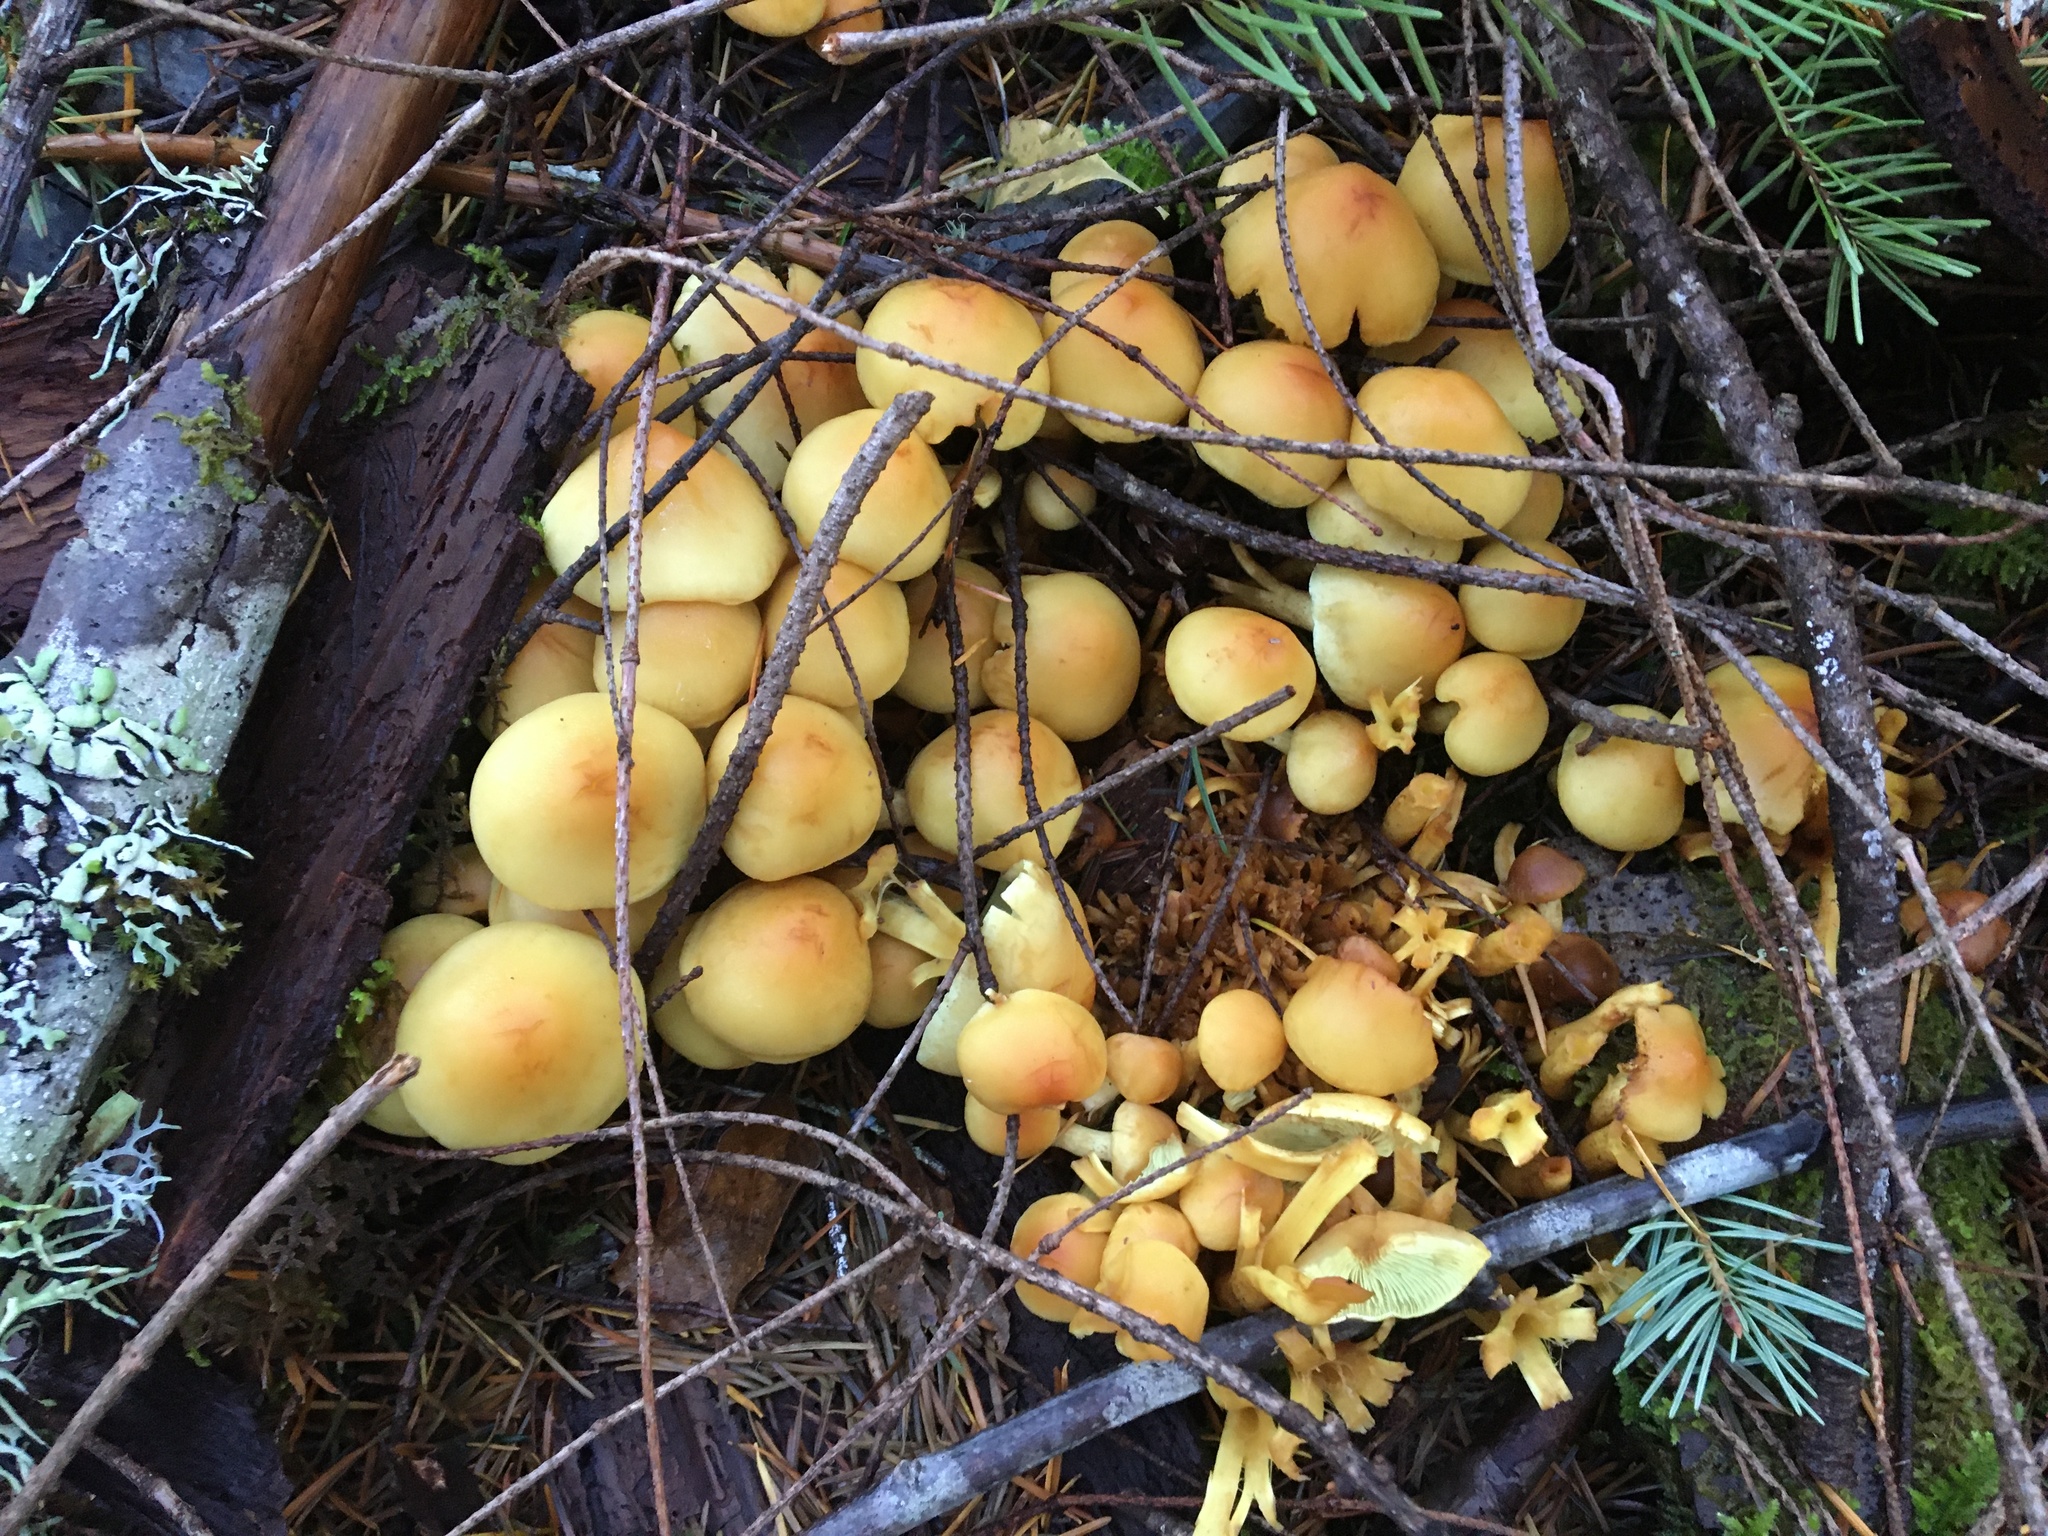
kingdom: Fungi
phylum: Basidiomycota
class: Agaricomycetes
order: Agaricales
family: Strophariaceae
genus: Hypholoma
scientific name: Hypholoma fasciculare
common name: Sulphur tuft
